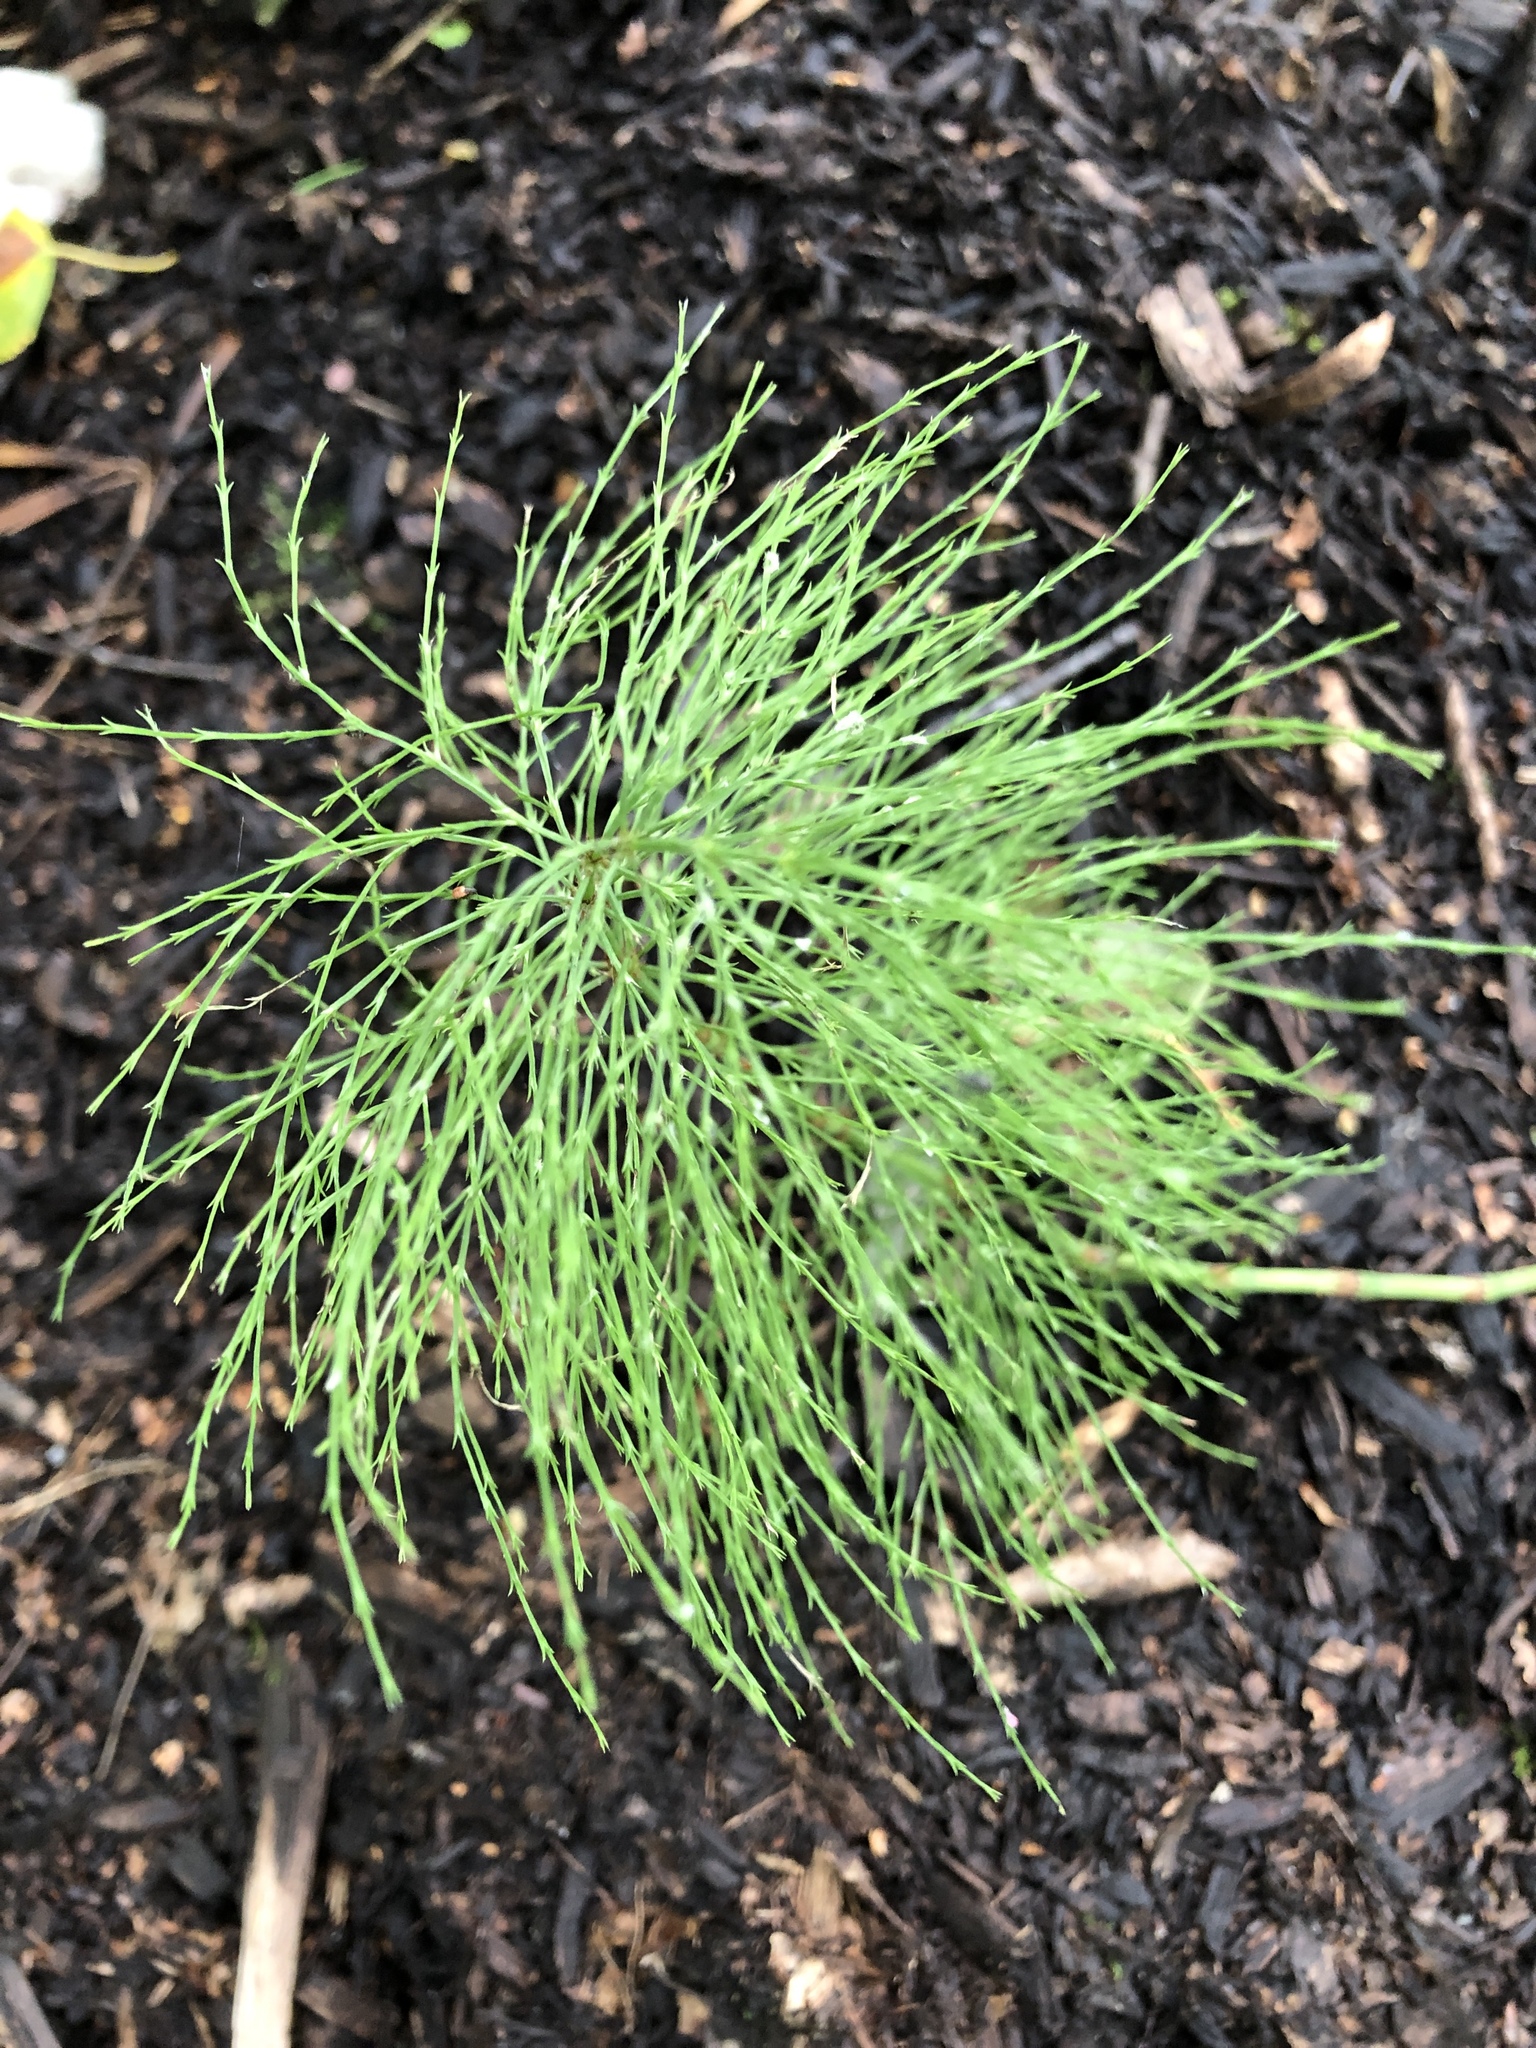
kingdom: Plantae
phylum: Tracheophyta
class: Polypodiopsida
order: Equisetales
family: Equisetaceae
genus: Equisetum
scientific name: Equisetum sylvaticum
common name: Wood horsetail
